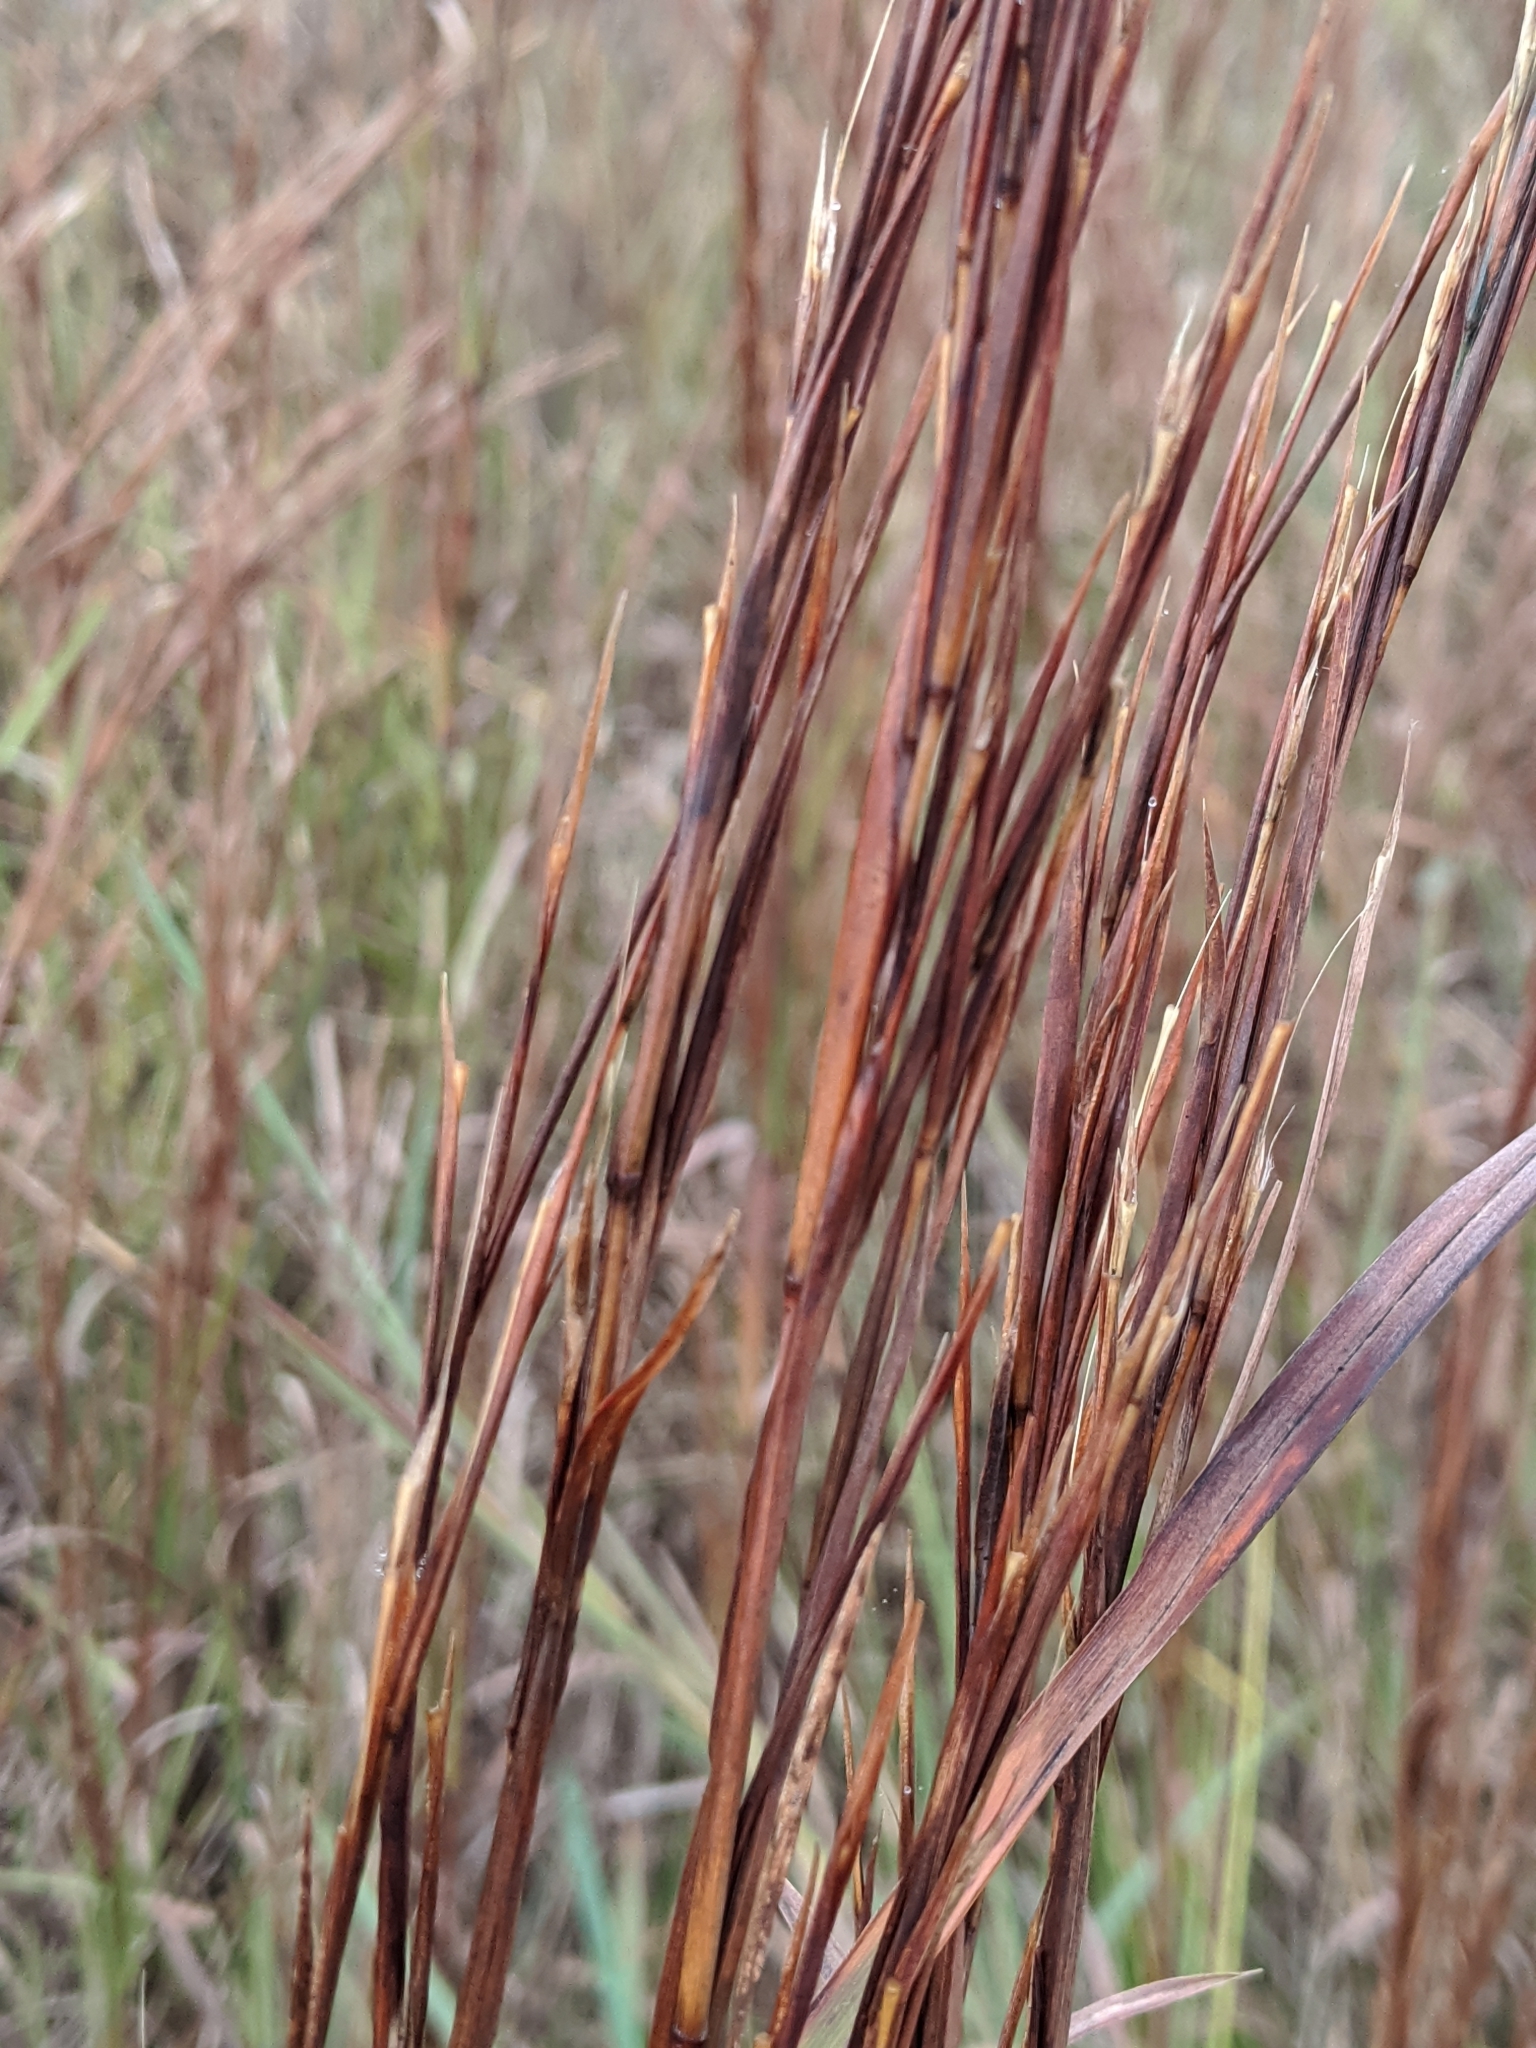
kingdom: Plantae
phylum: Tracheophyta
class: Liliopsida
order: Poales
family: Poaceae
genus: Schizachyrium
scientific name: Schizachyrium scoparium
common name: Little bluestem
